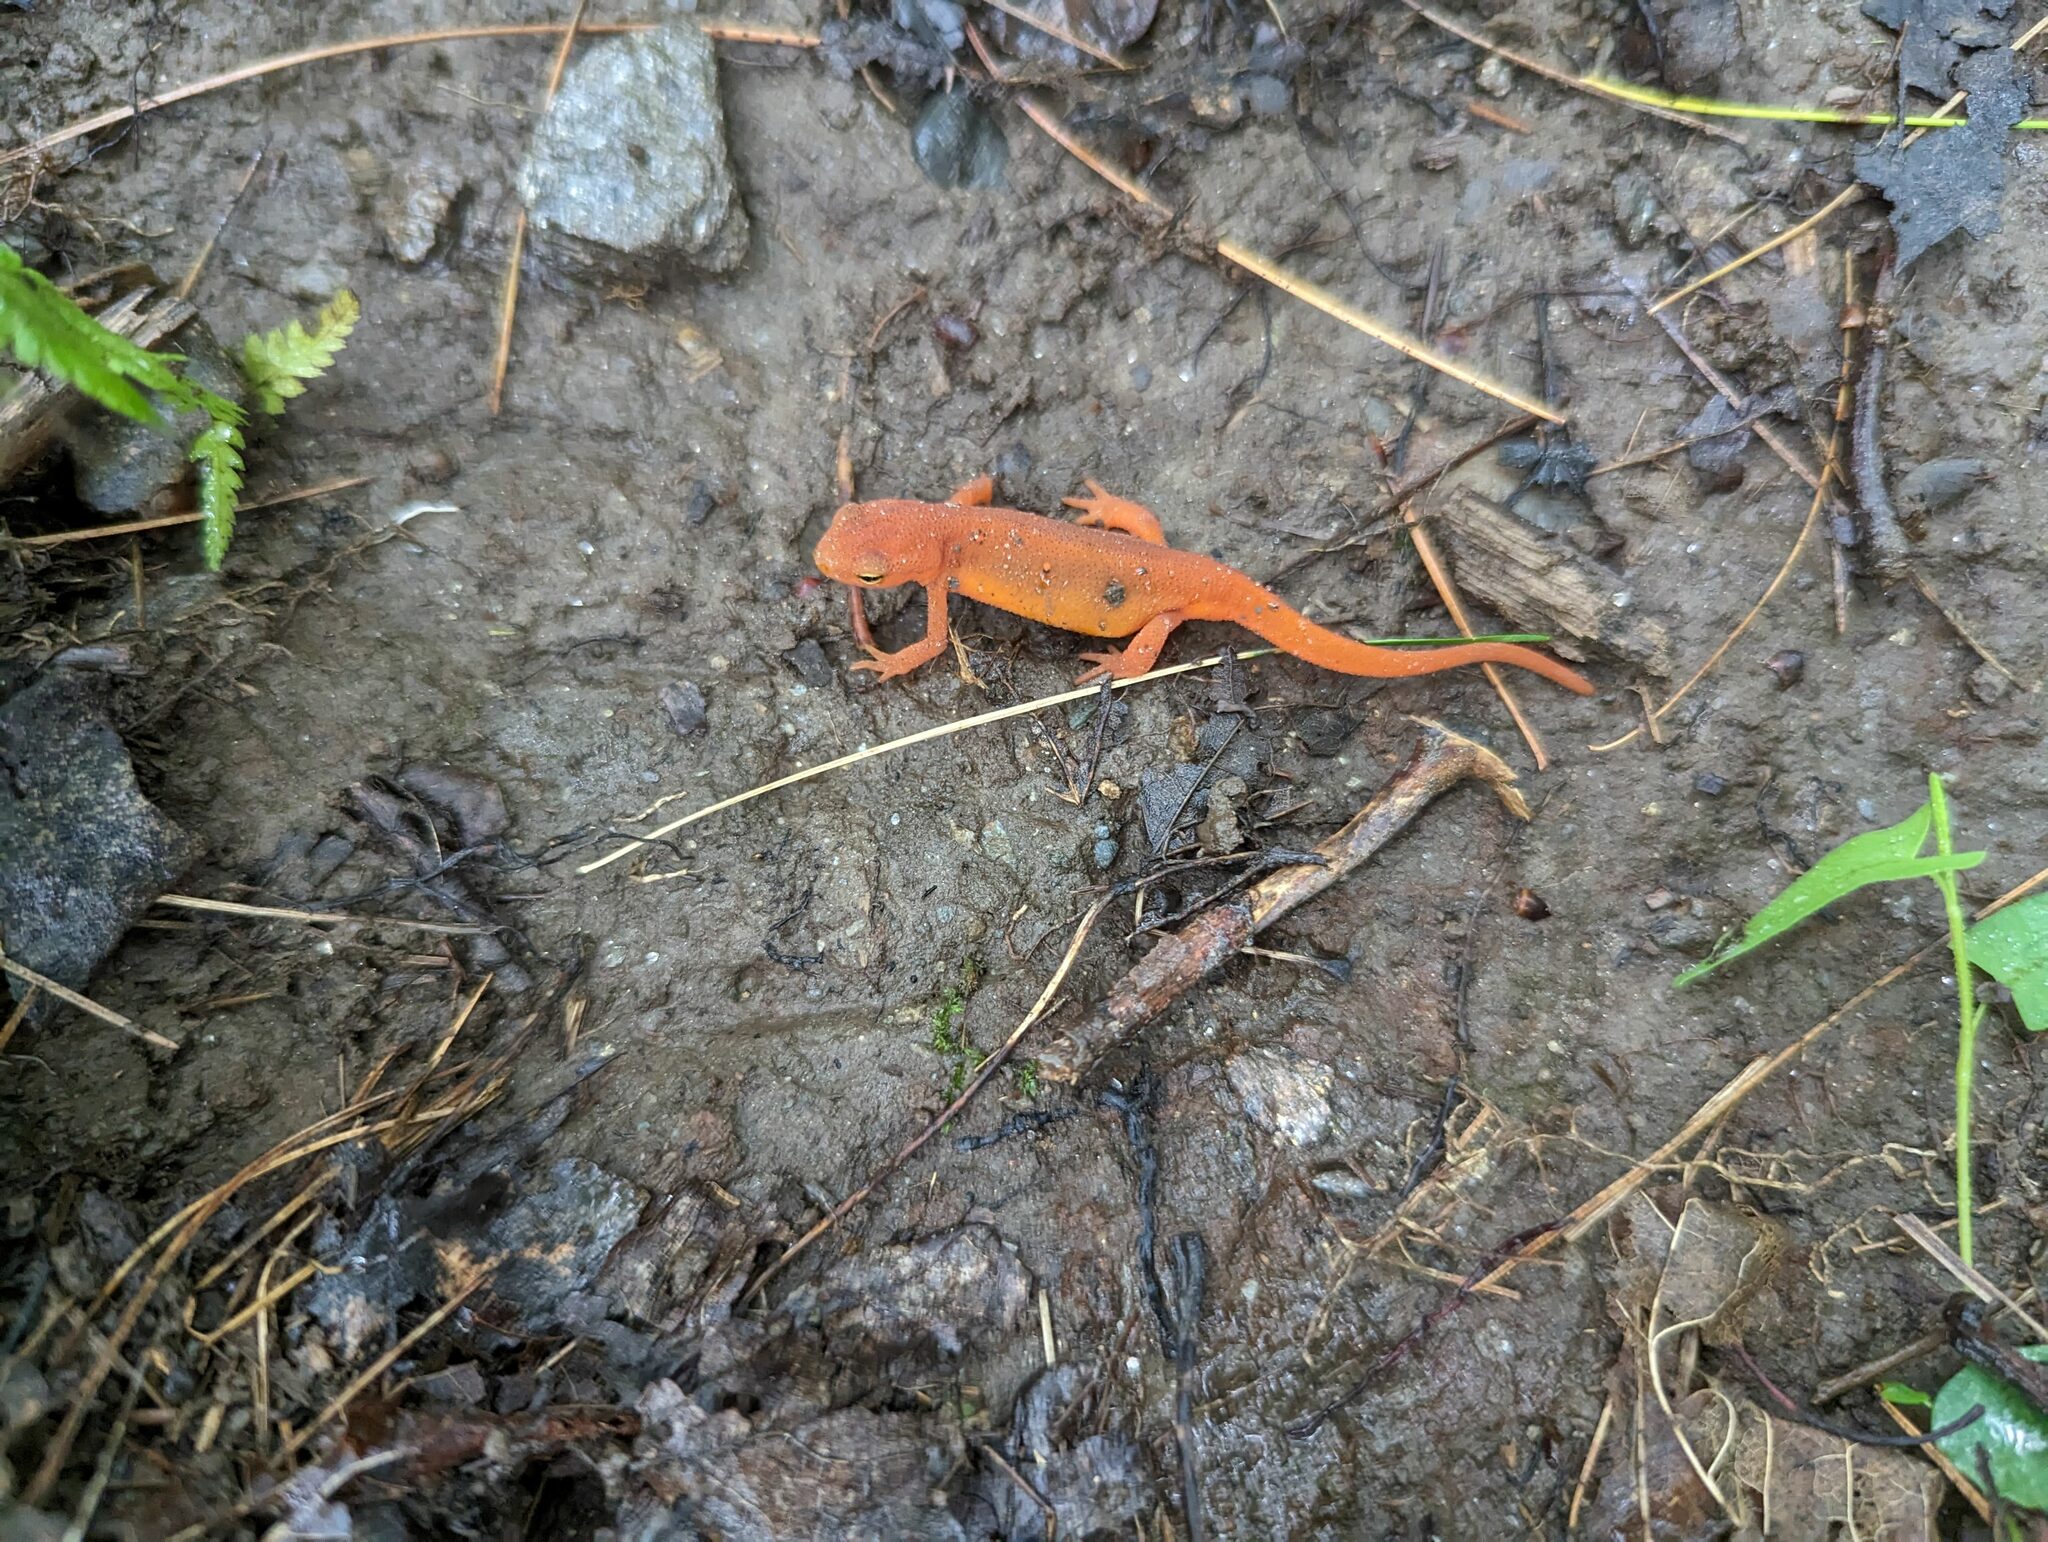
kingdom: Animalia
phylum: Chordata
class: Amphibia
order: Caudata
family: Salamandridae
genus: Notophthalmus
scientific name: Notophthalmus viridescens
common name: Eastern newt
